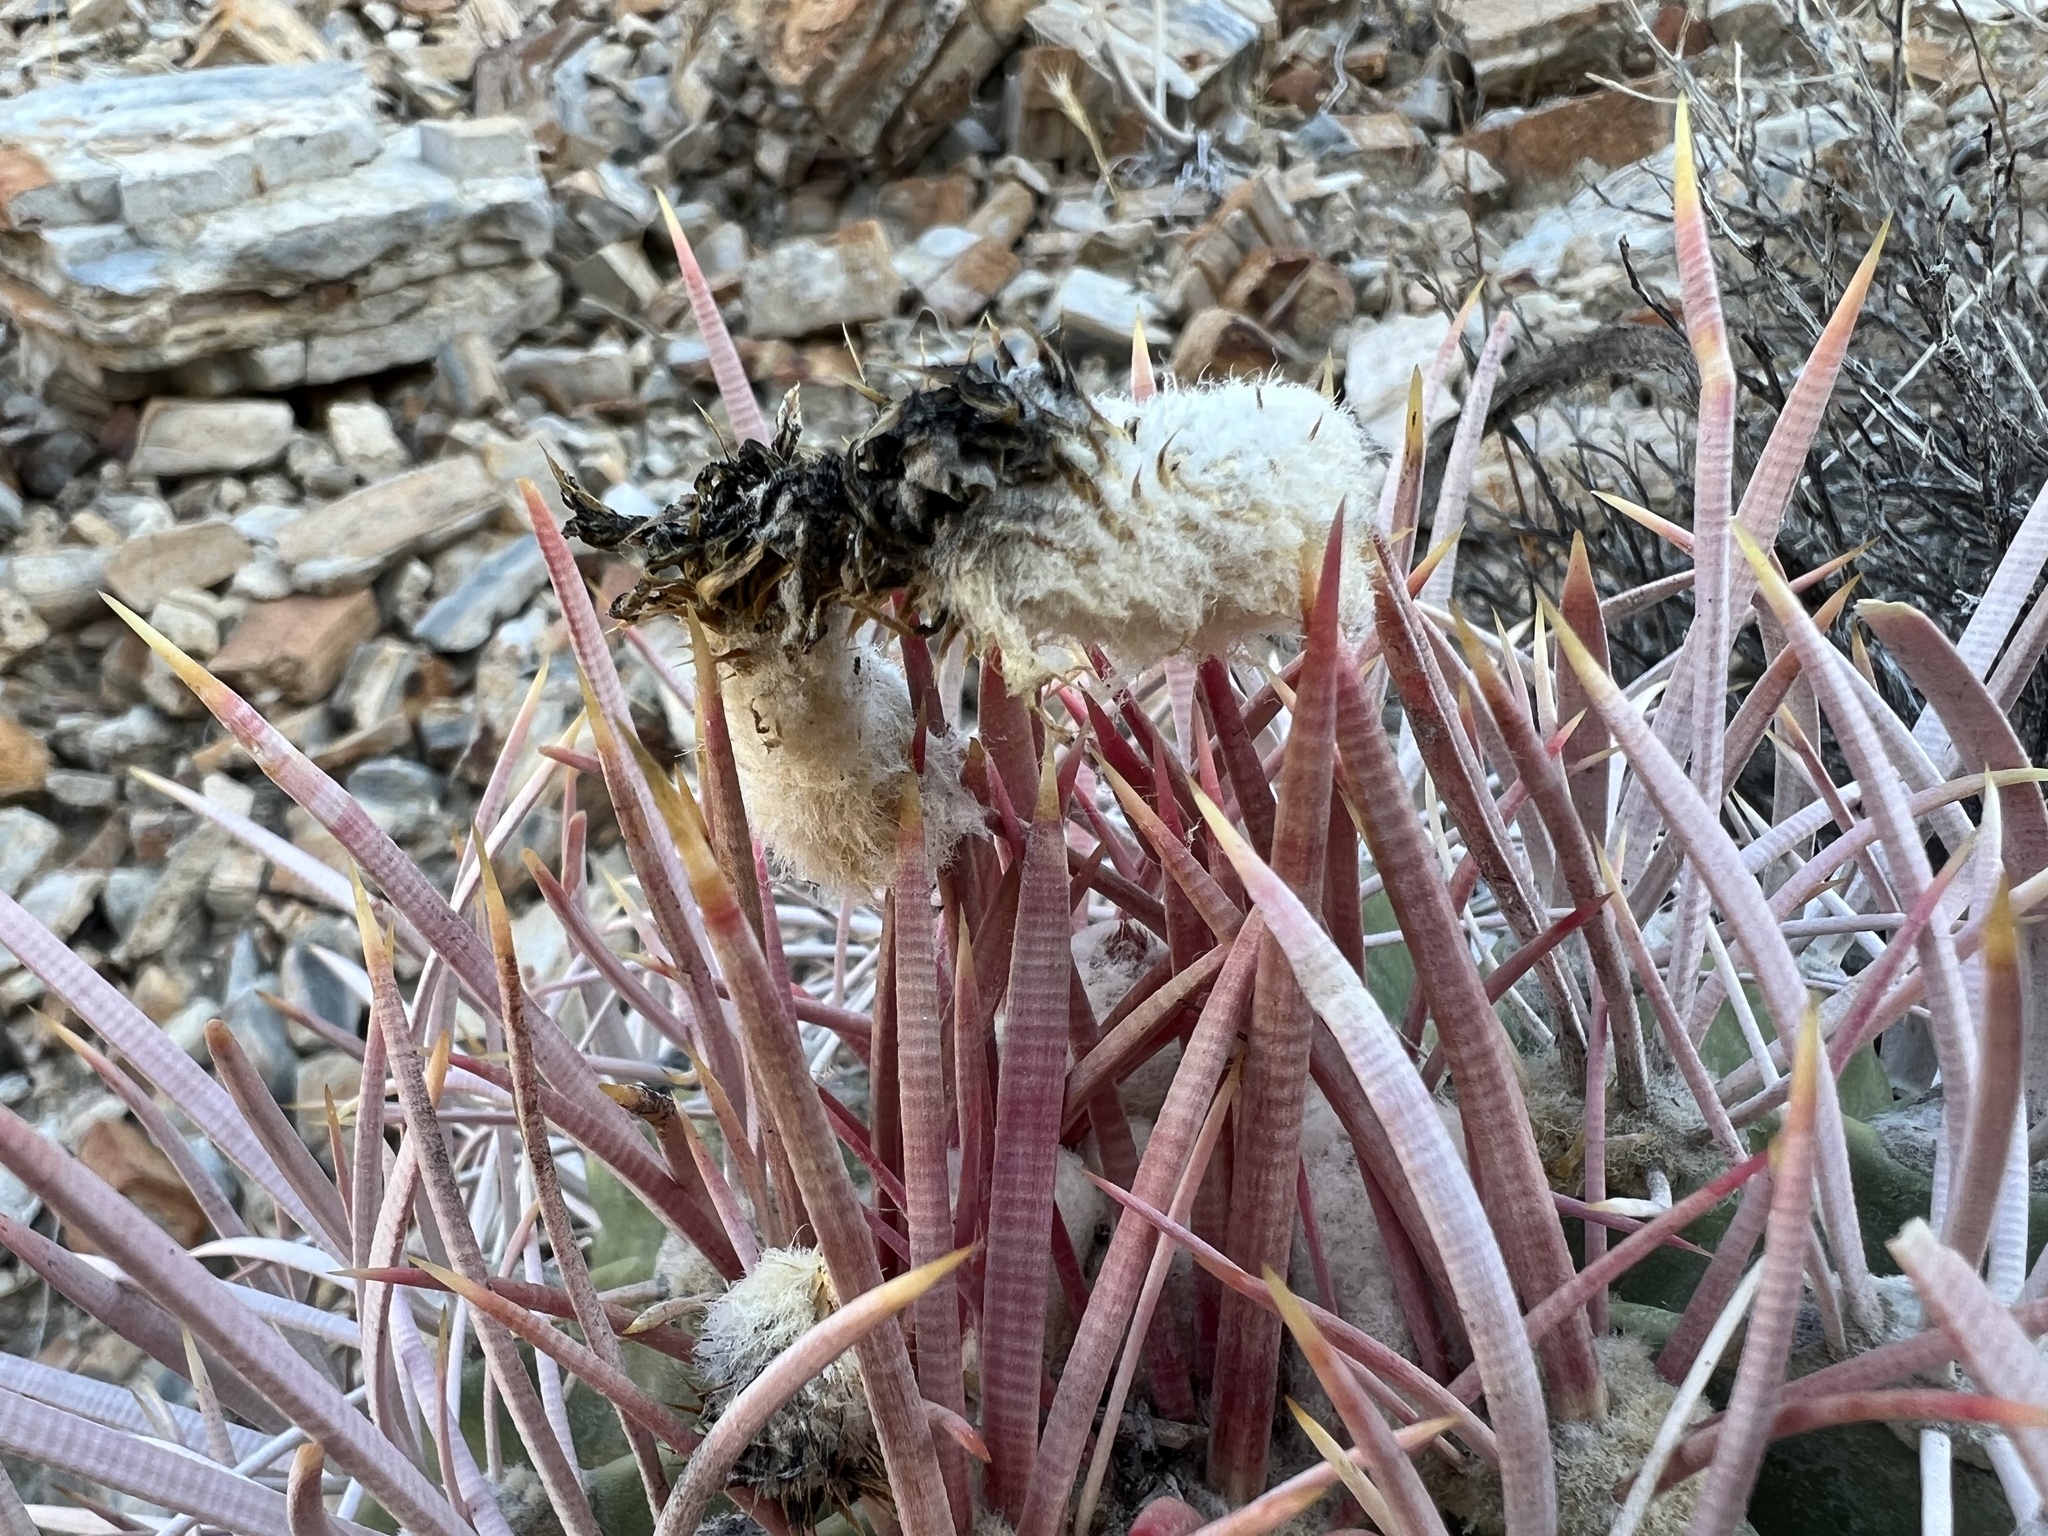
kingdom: Plantae
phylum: Tracheophyta
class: Magnoliopsida
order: Caryophyllales
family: Cactaceae
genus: Echinocactus
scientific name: Echinocactus polycephalus
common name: Cottontop cactus
